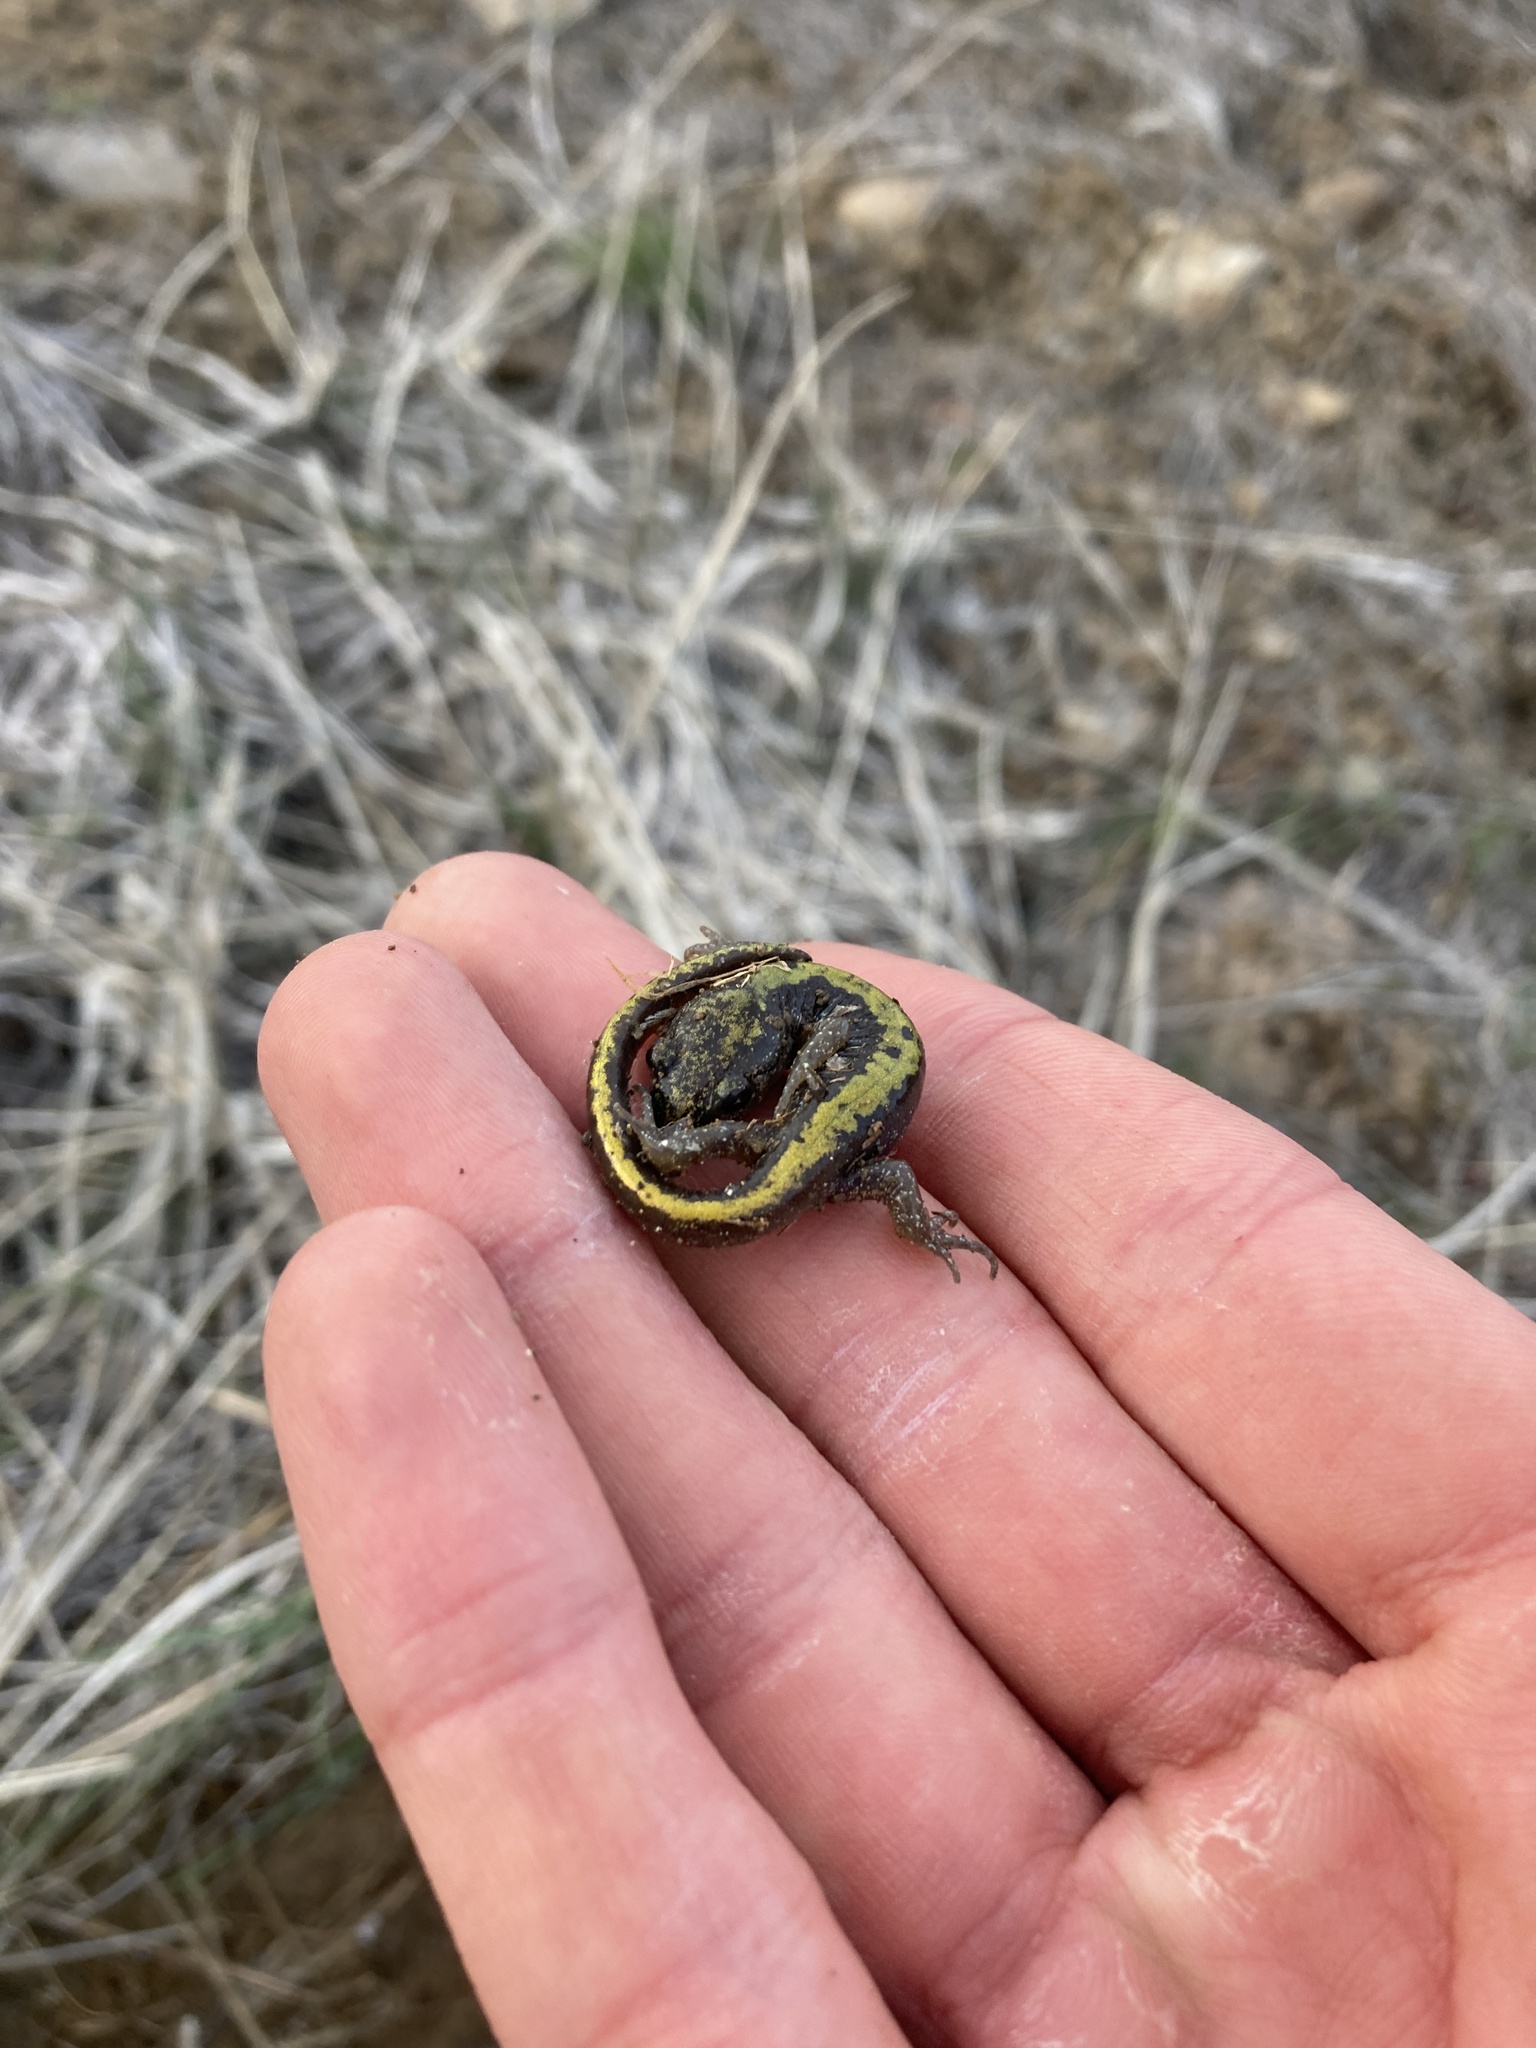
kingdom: Animalia
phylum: Chordata
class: Amphibia
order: Caudata
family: Ambystomatidae
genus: Ambystoma
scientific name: Ambystoma macrodactylum
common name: Long-toed salamander
